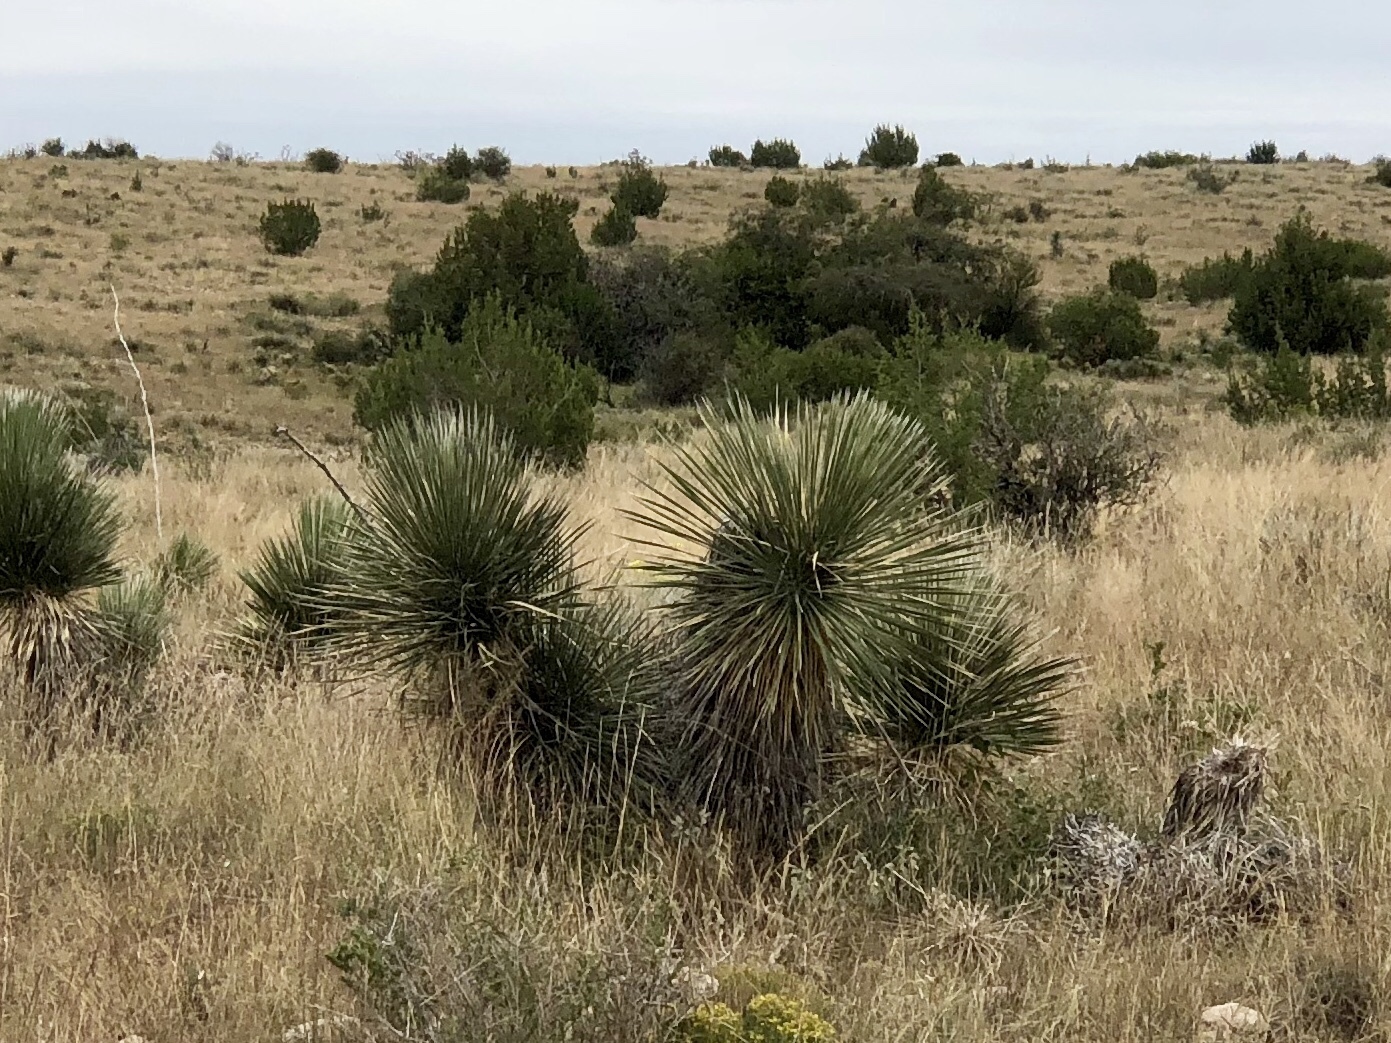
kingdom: Plantae
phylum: Tracheophyta
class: Liliopsida
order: Asparagales
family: Asparagaceae
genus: Yucca
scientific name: Yucca elata
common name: Palmella
